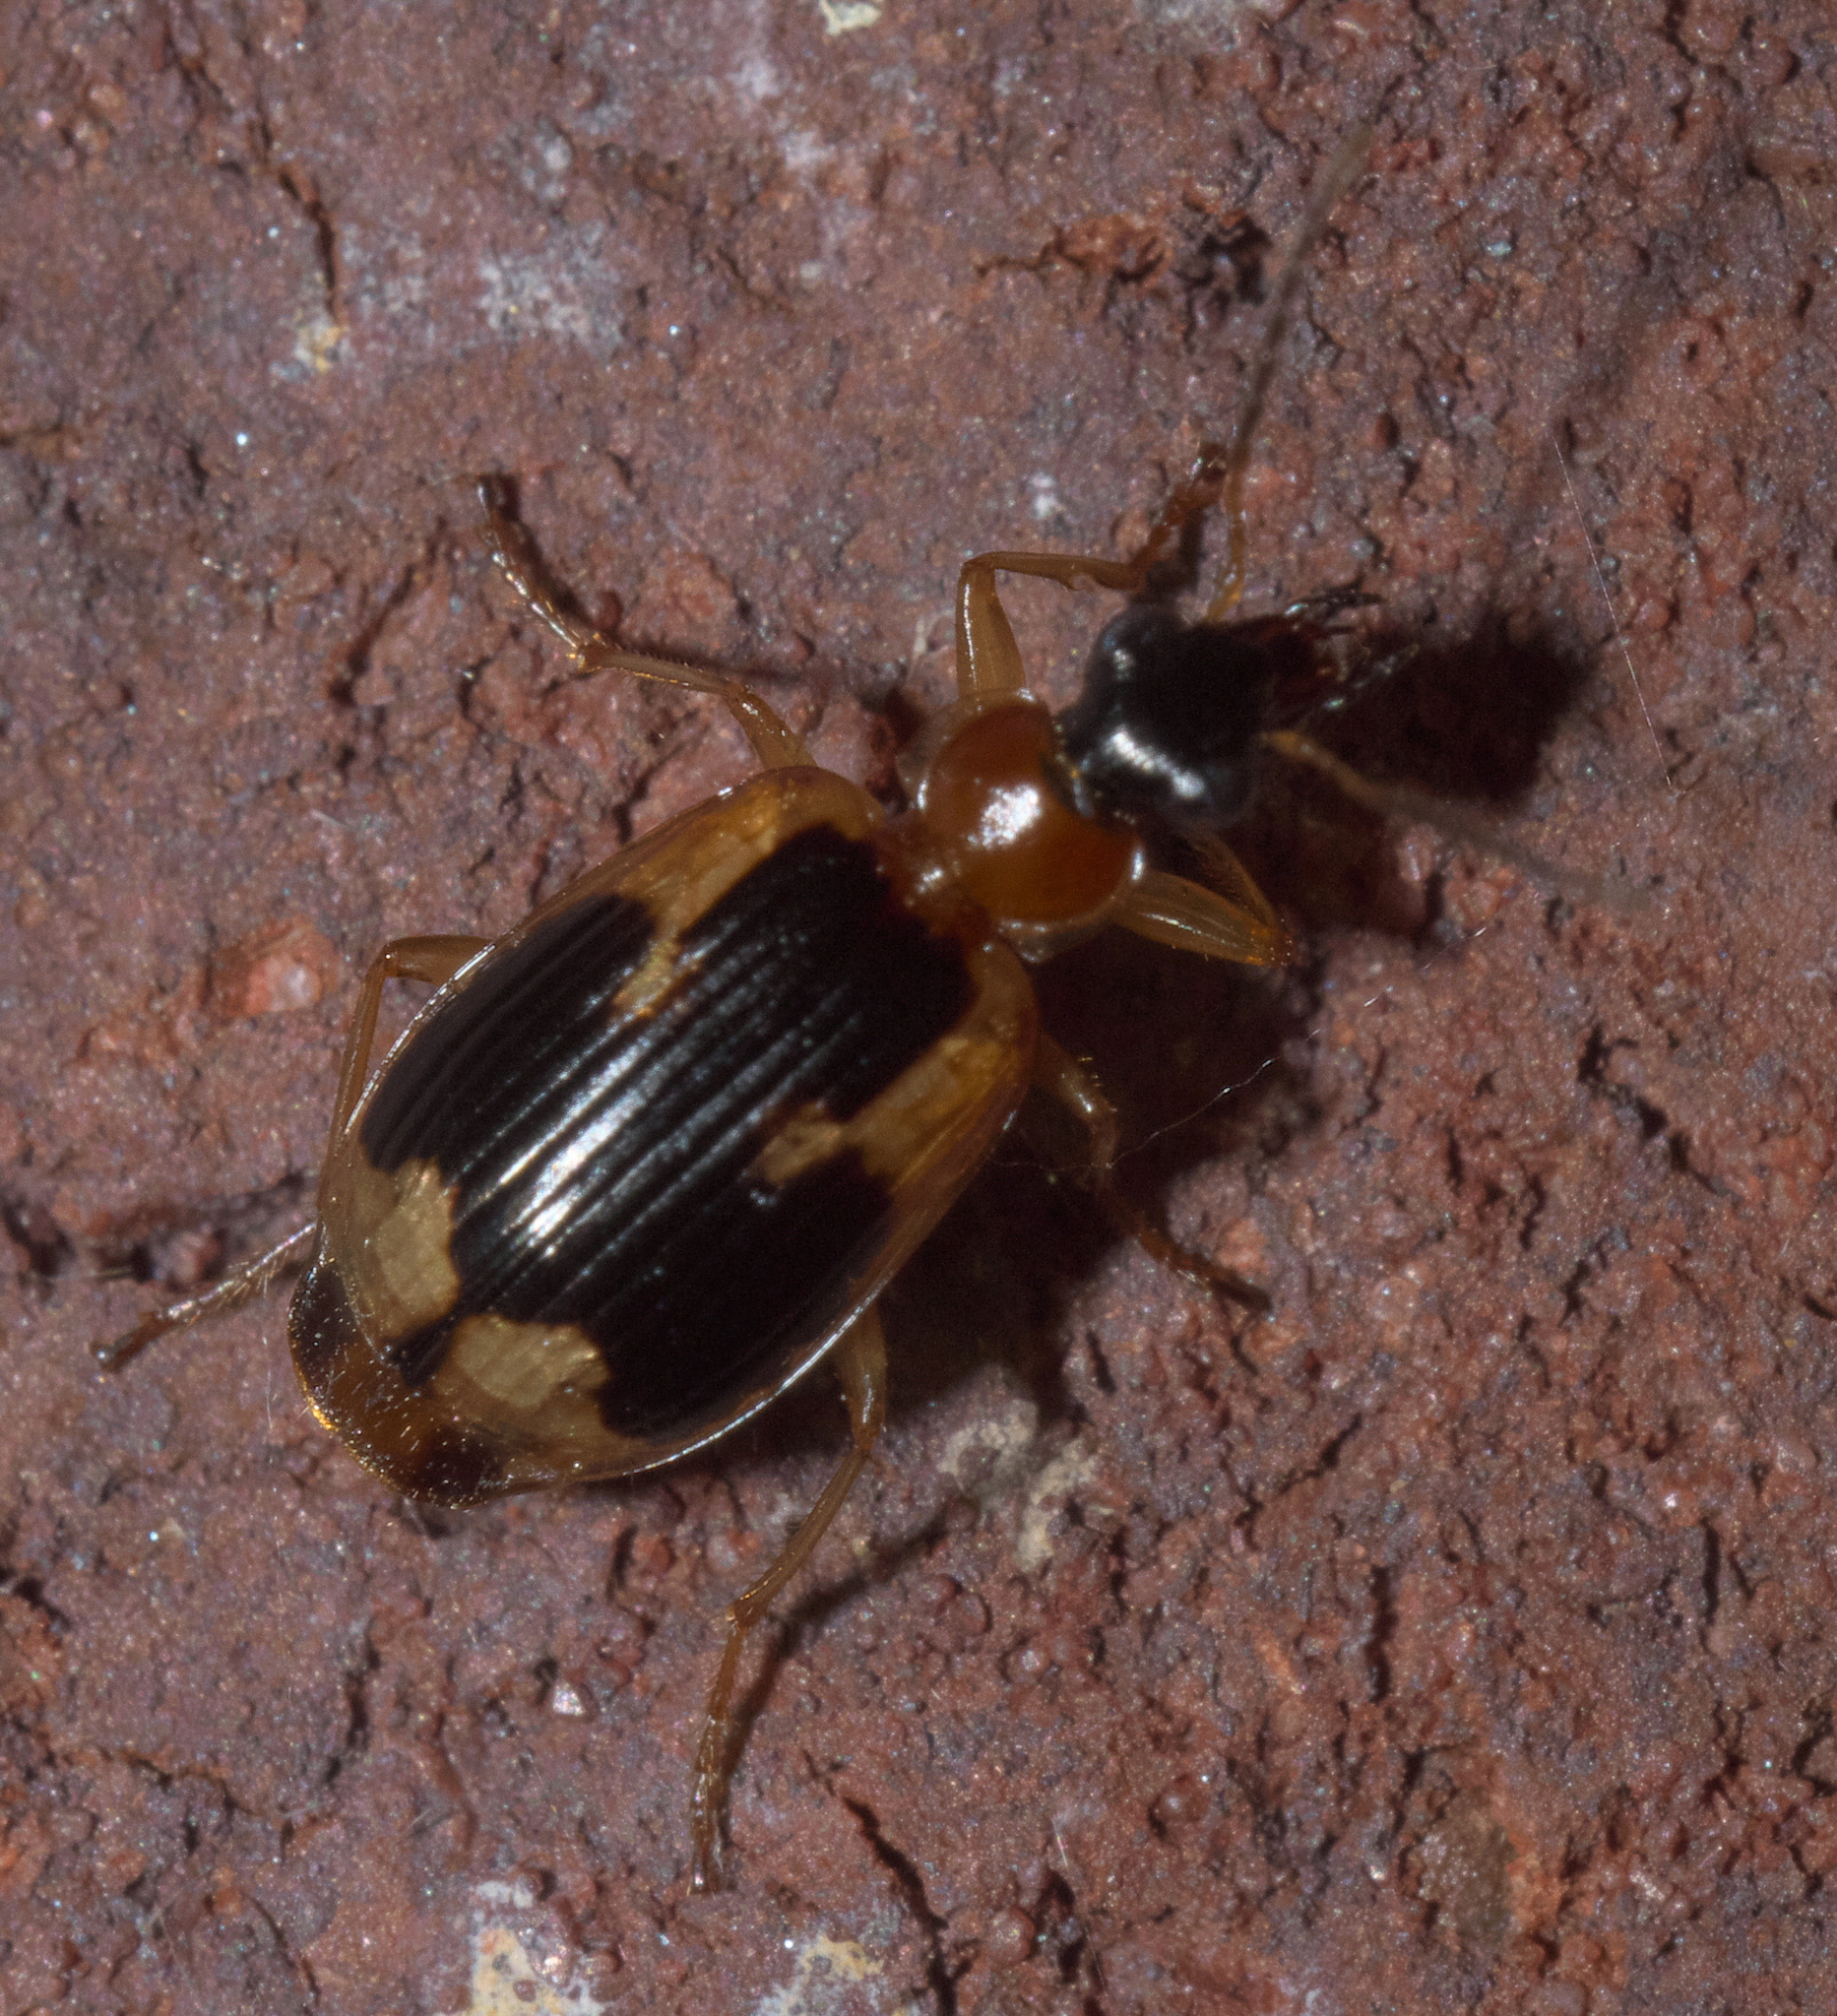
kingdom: Animalia
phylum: Arthropoda
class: Insecta
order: Coleoptera
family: Carabidae
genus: Lebia
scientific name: Lebia analis
